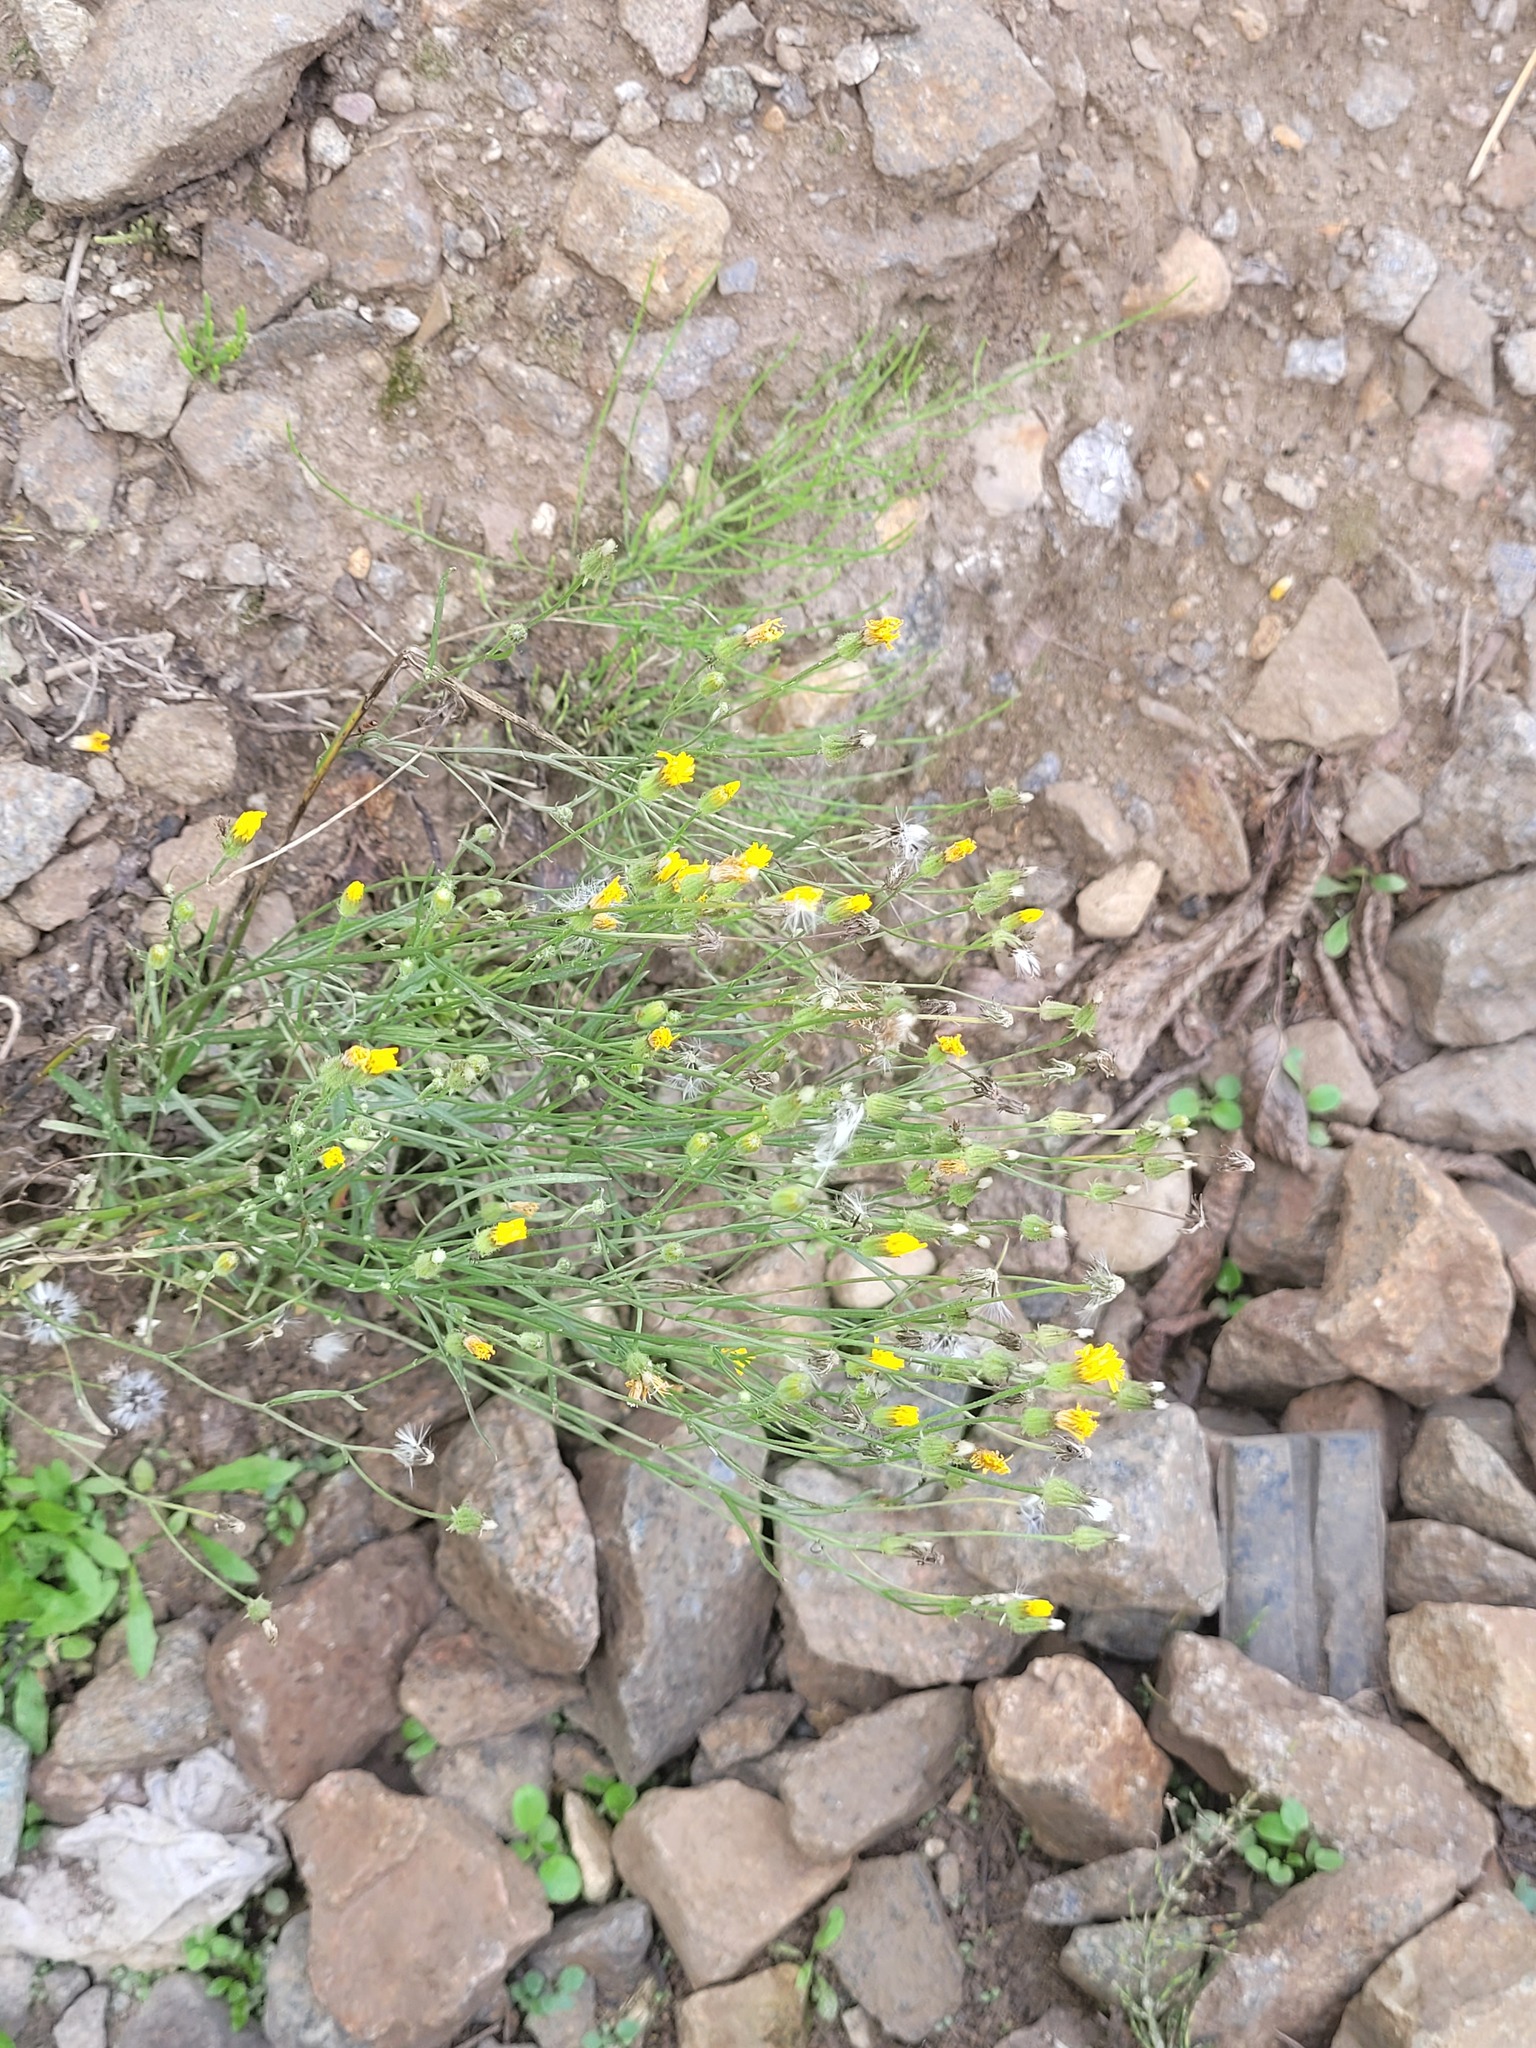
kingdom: Plantae
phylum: Tracheophyta
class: Magnoliopsida
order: Asterales
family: Asteraceae
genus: Crepis
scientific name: Crepis tectorum
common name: Narrow-leaved hawk's-beard
